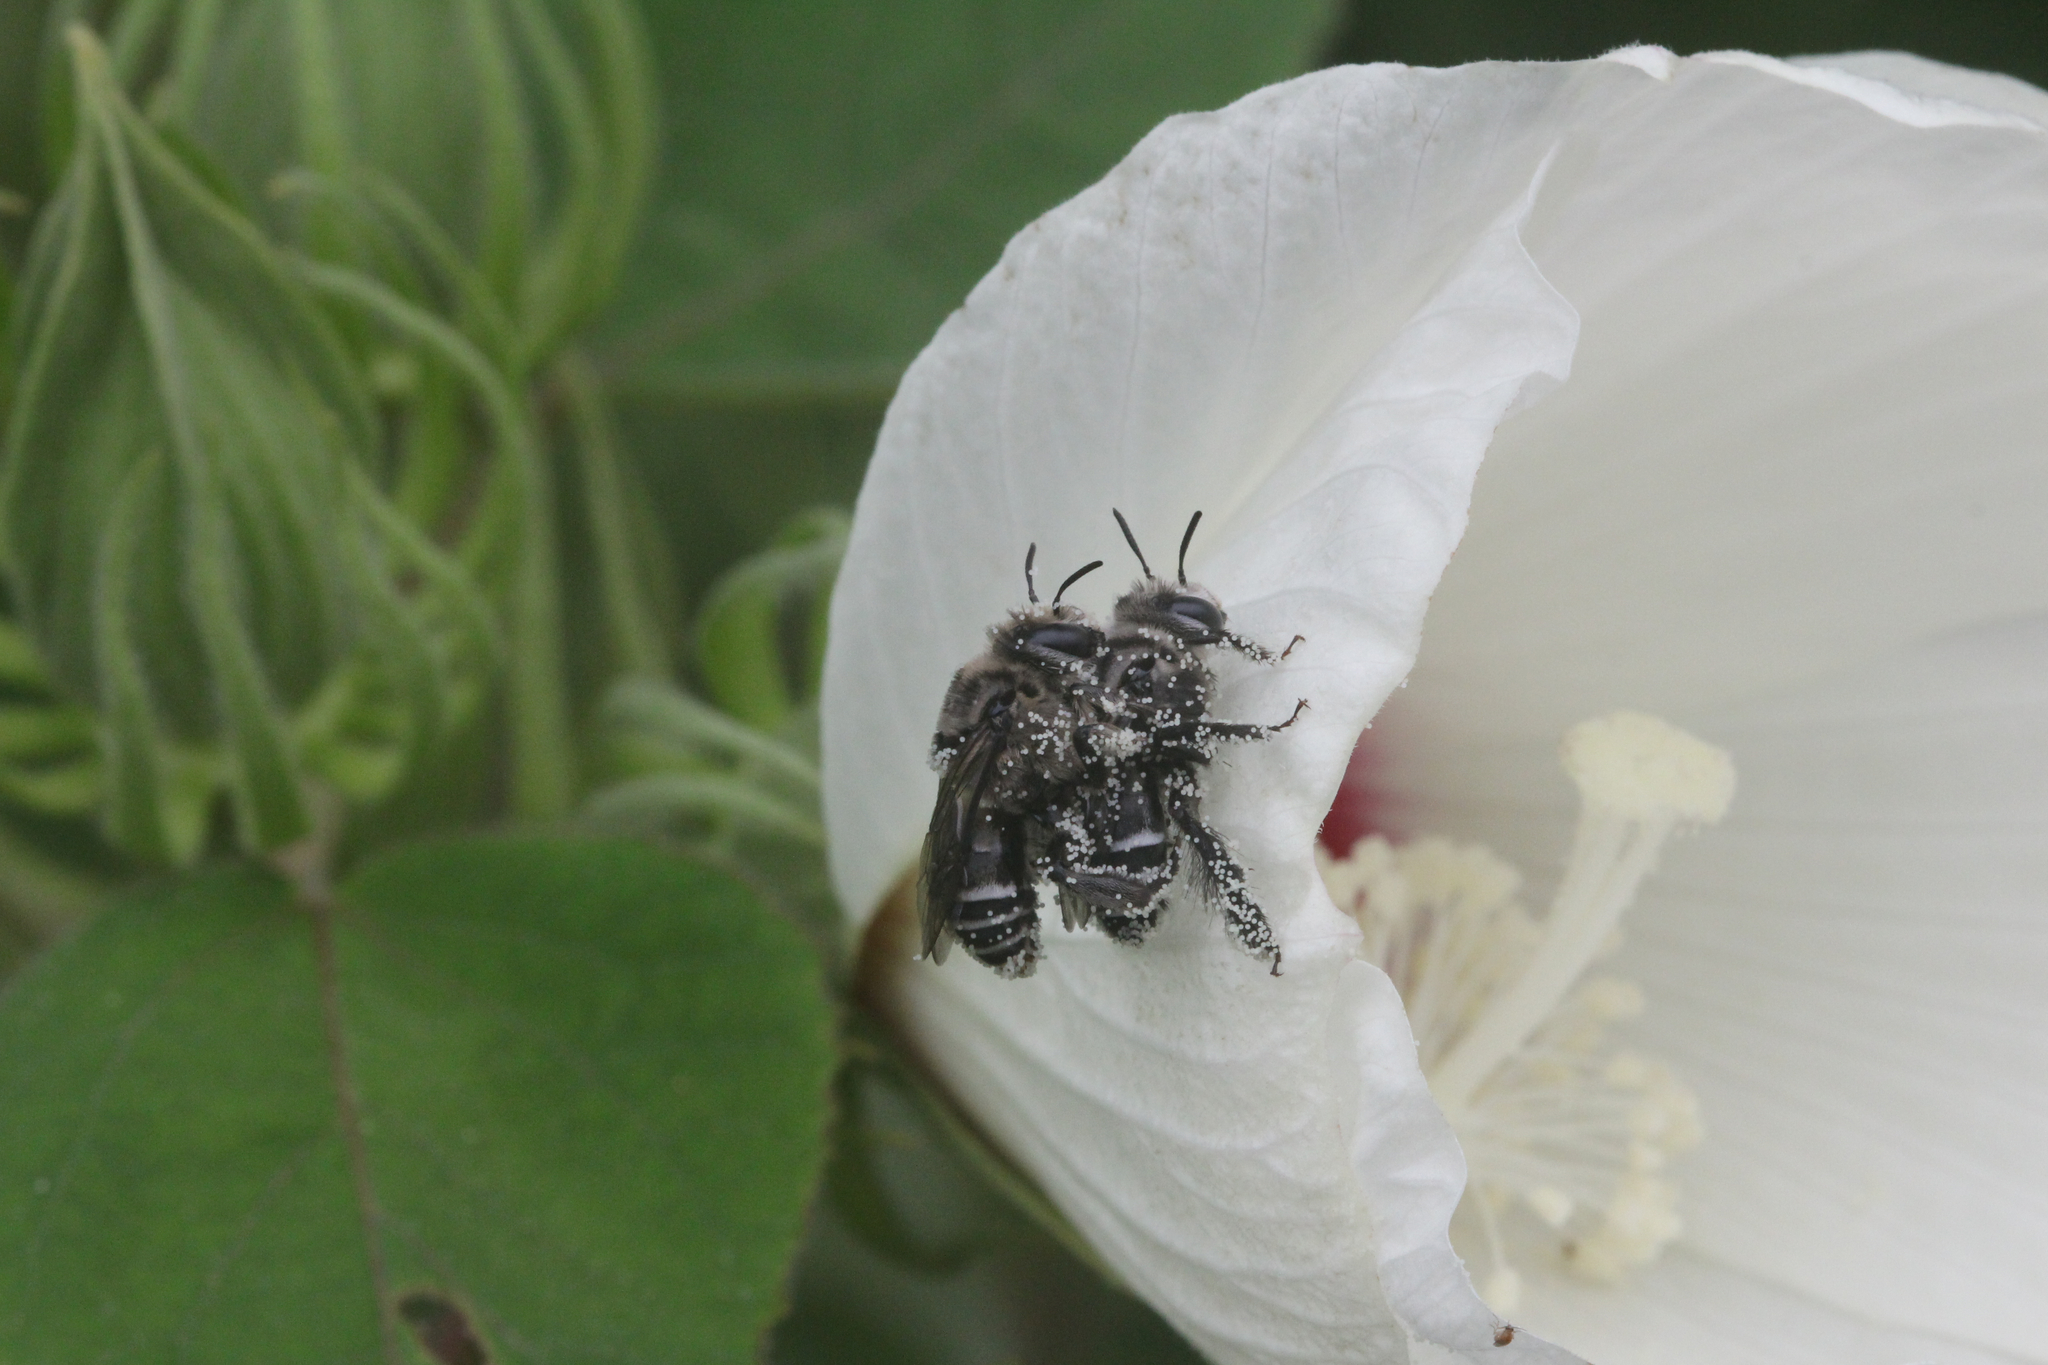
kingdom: Animalia
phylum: Arthropoda
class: Insecta
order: Hymenoptera
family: Apidae
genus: Melitoma
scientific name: Melitoma taurea
